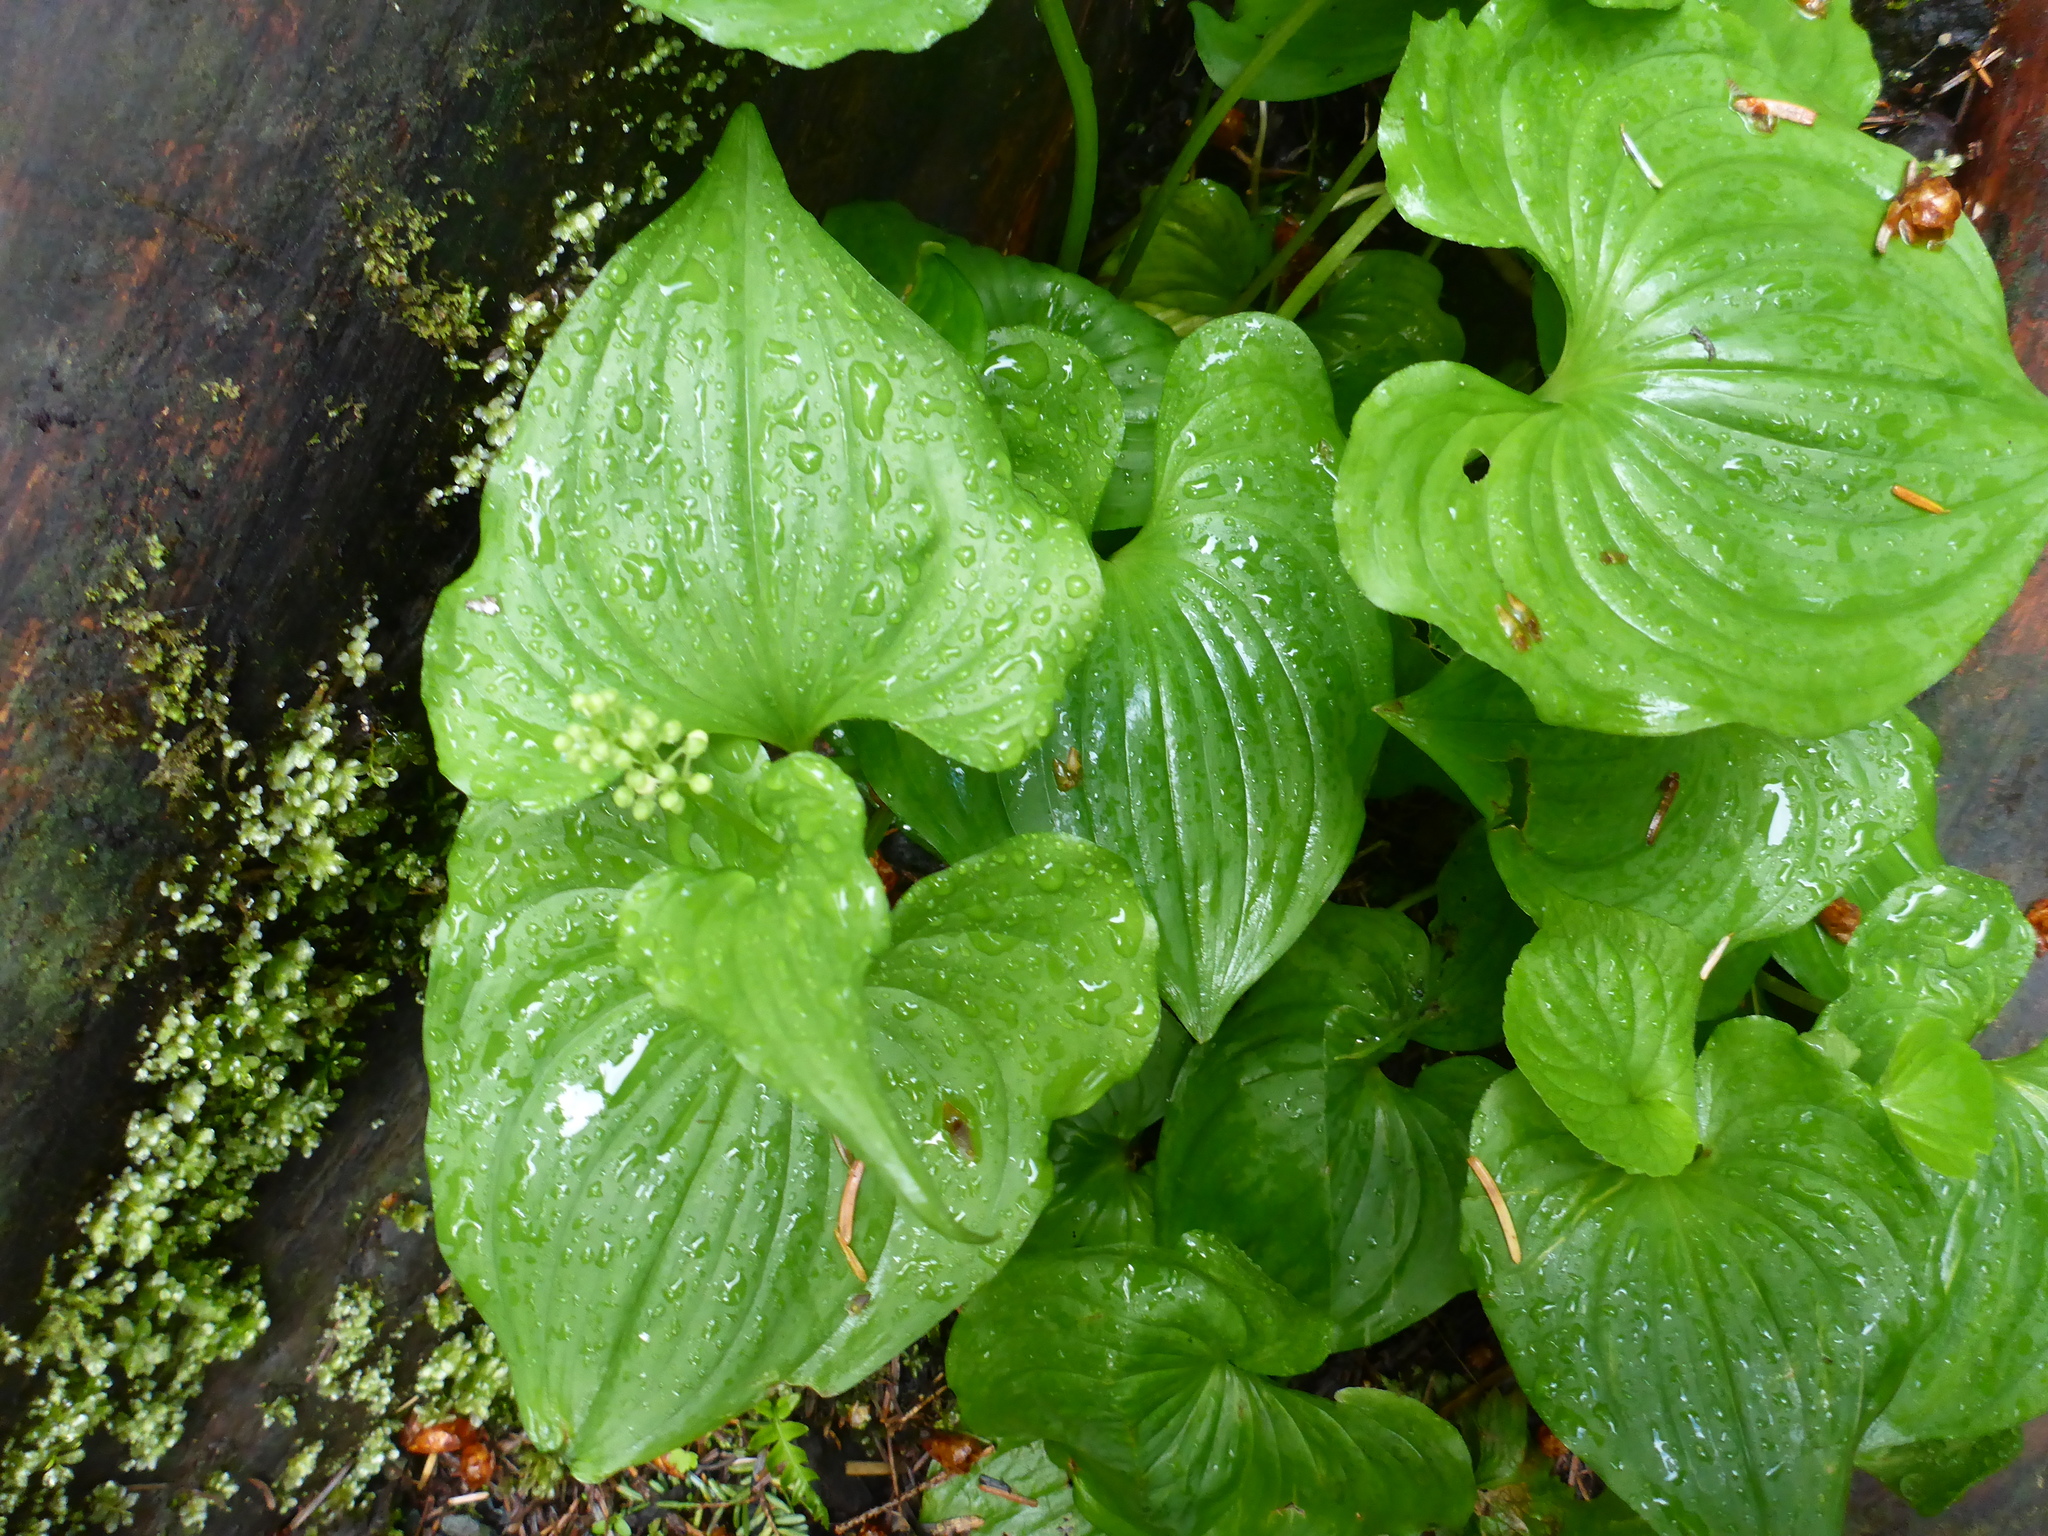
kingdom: Plantae
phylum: Tracheophyta
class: Liliopsida
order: Asparagales
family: Asparagaceae
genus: Maianthemum
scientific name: Maianthemum dilatatum
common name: False lily-of-the-valley
